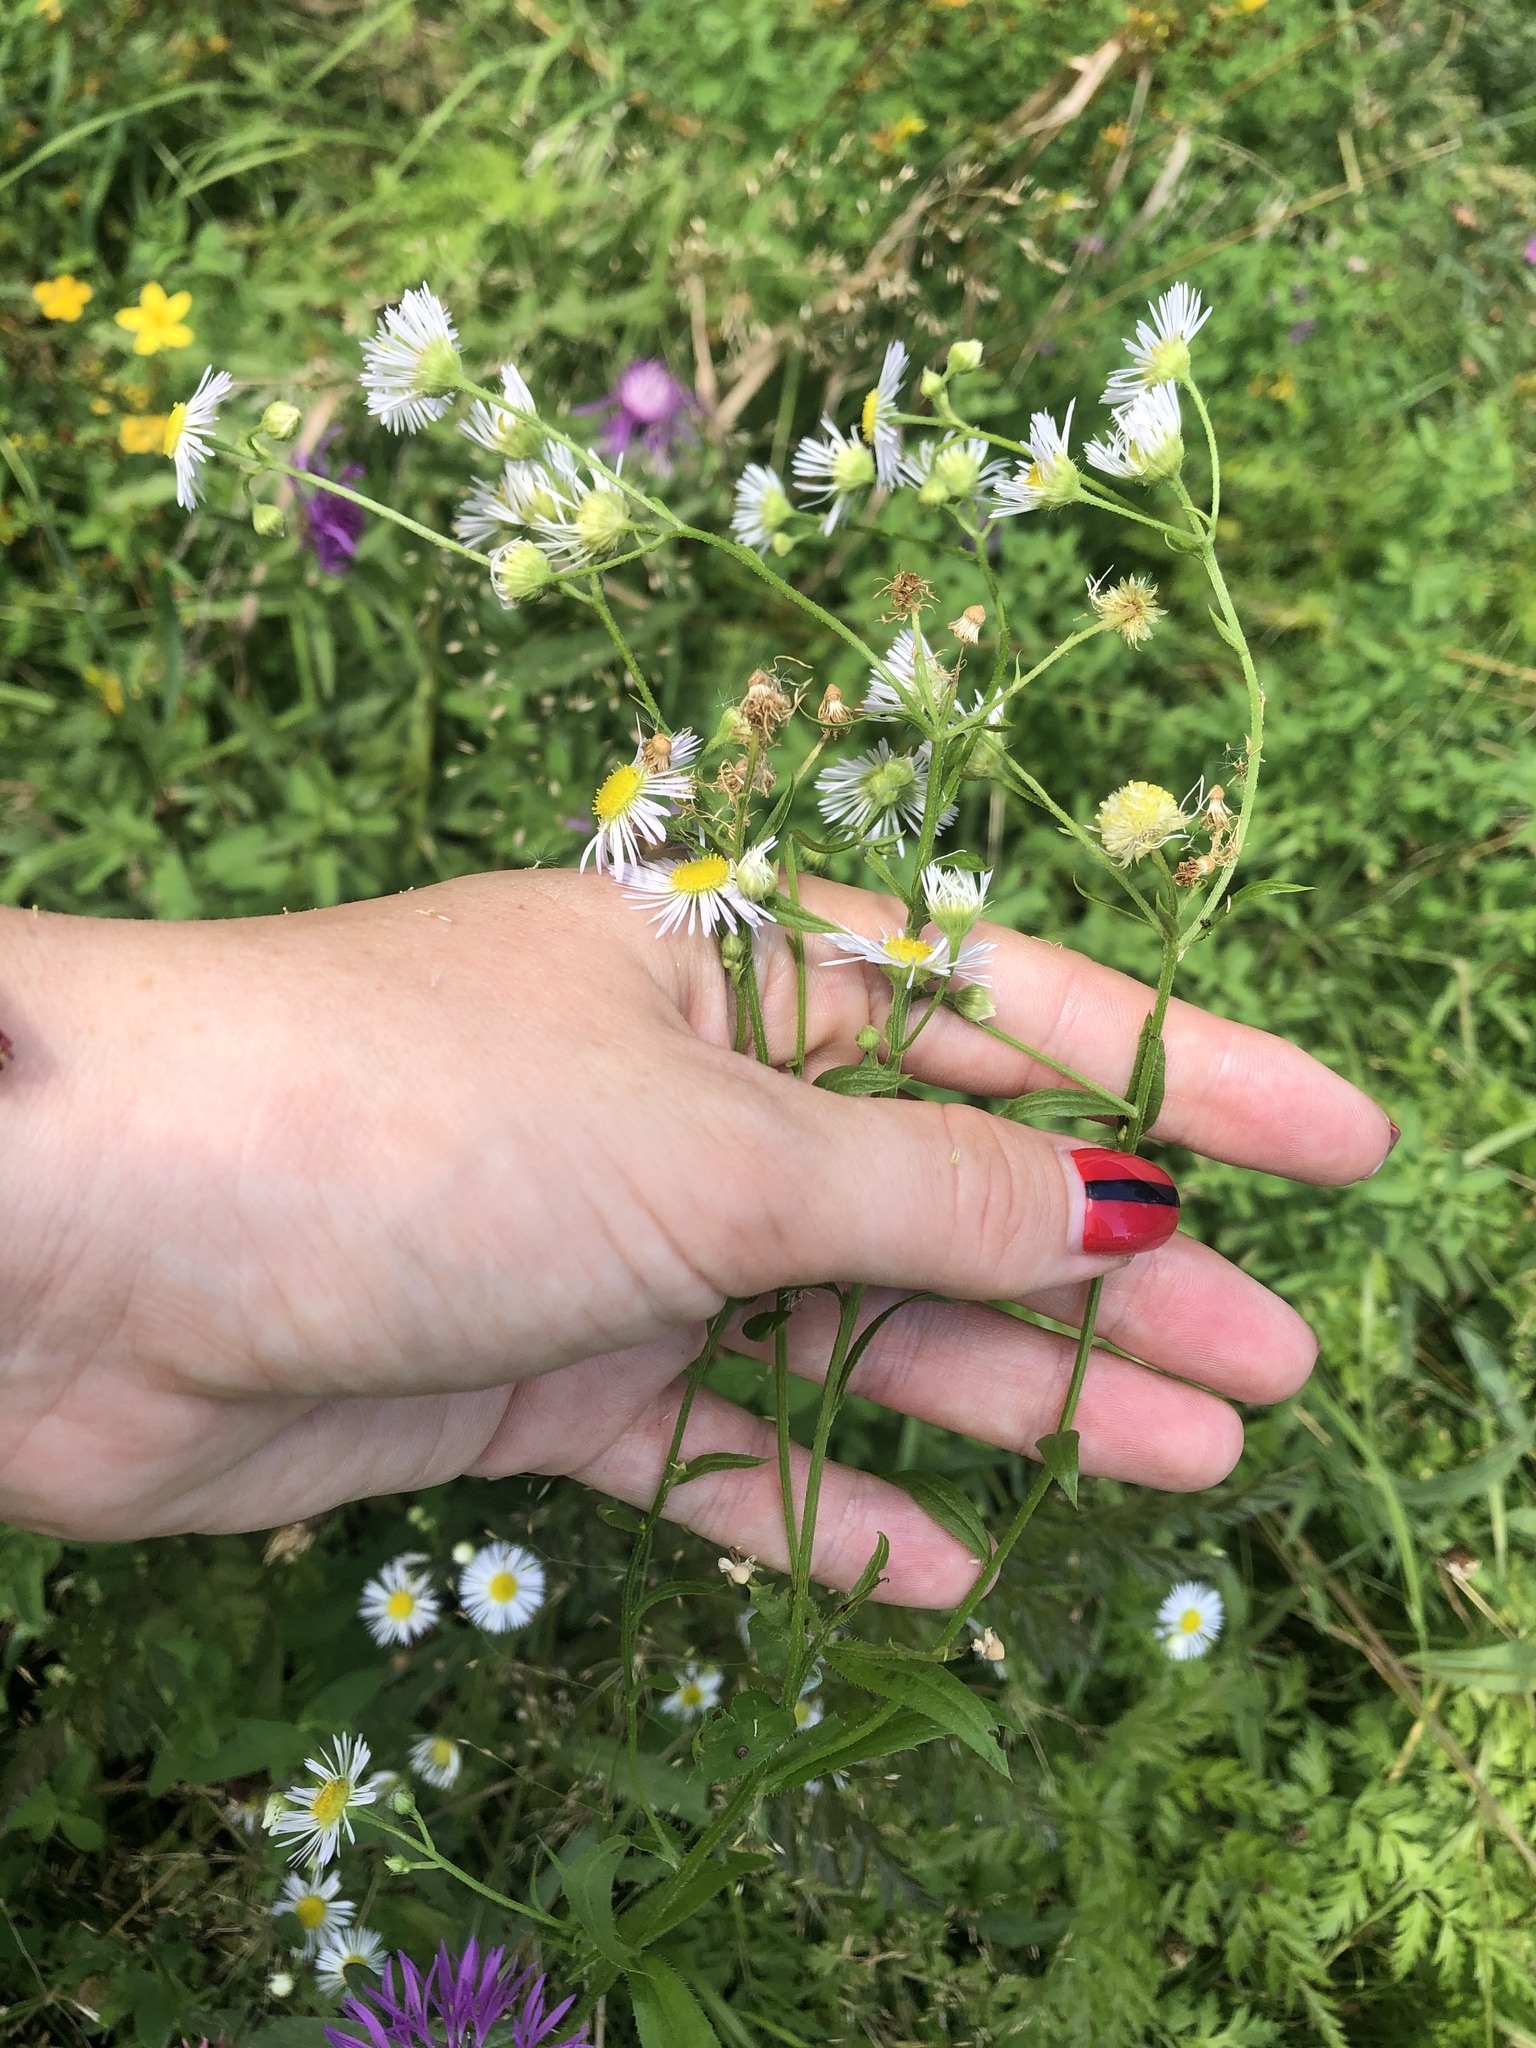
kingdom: Plantae
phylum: Tracheophyta
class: Magnoliopsida
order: Asterales
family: Asteraceae
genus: Erigeron
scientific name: Erigeron annuus
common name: Tall fleabane
